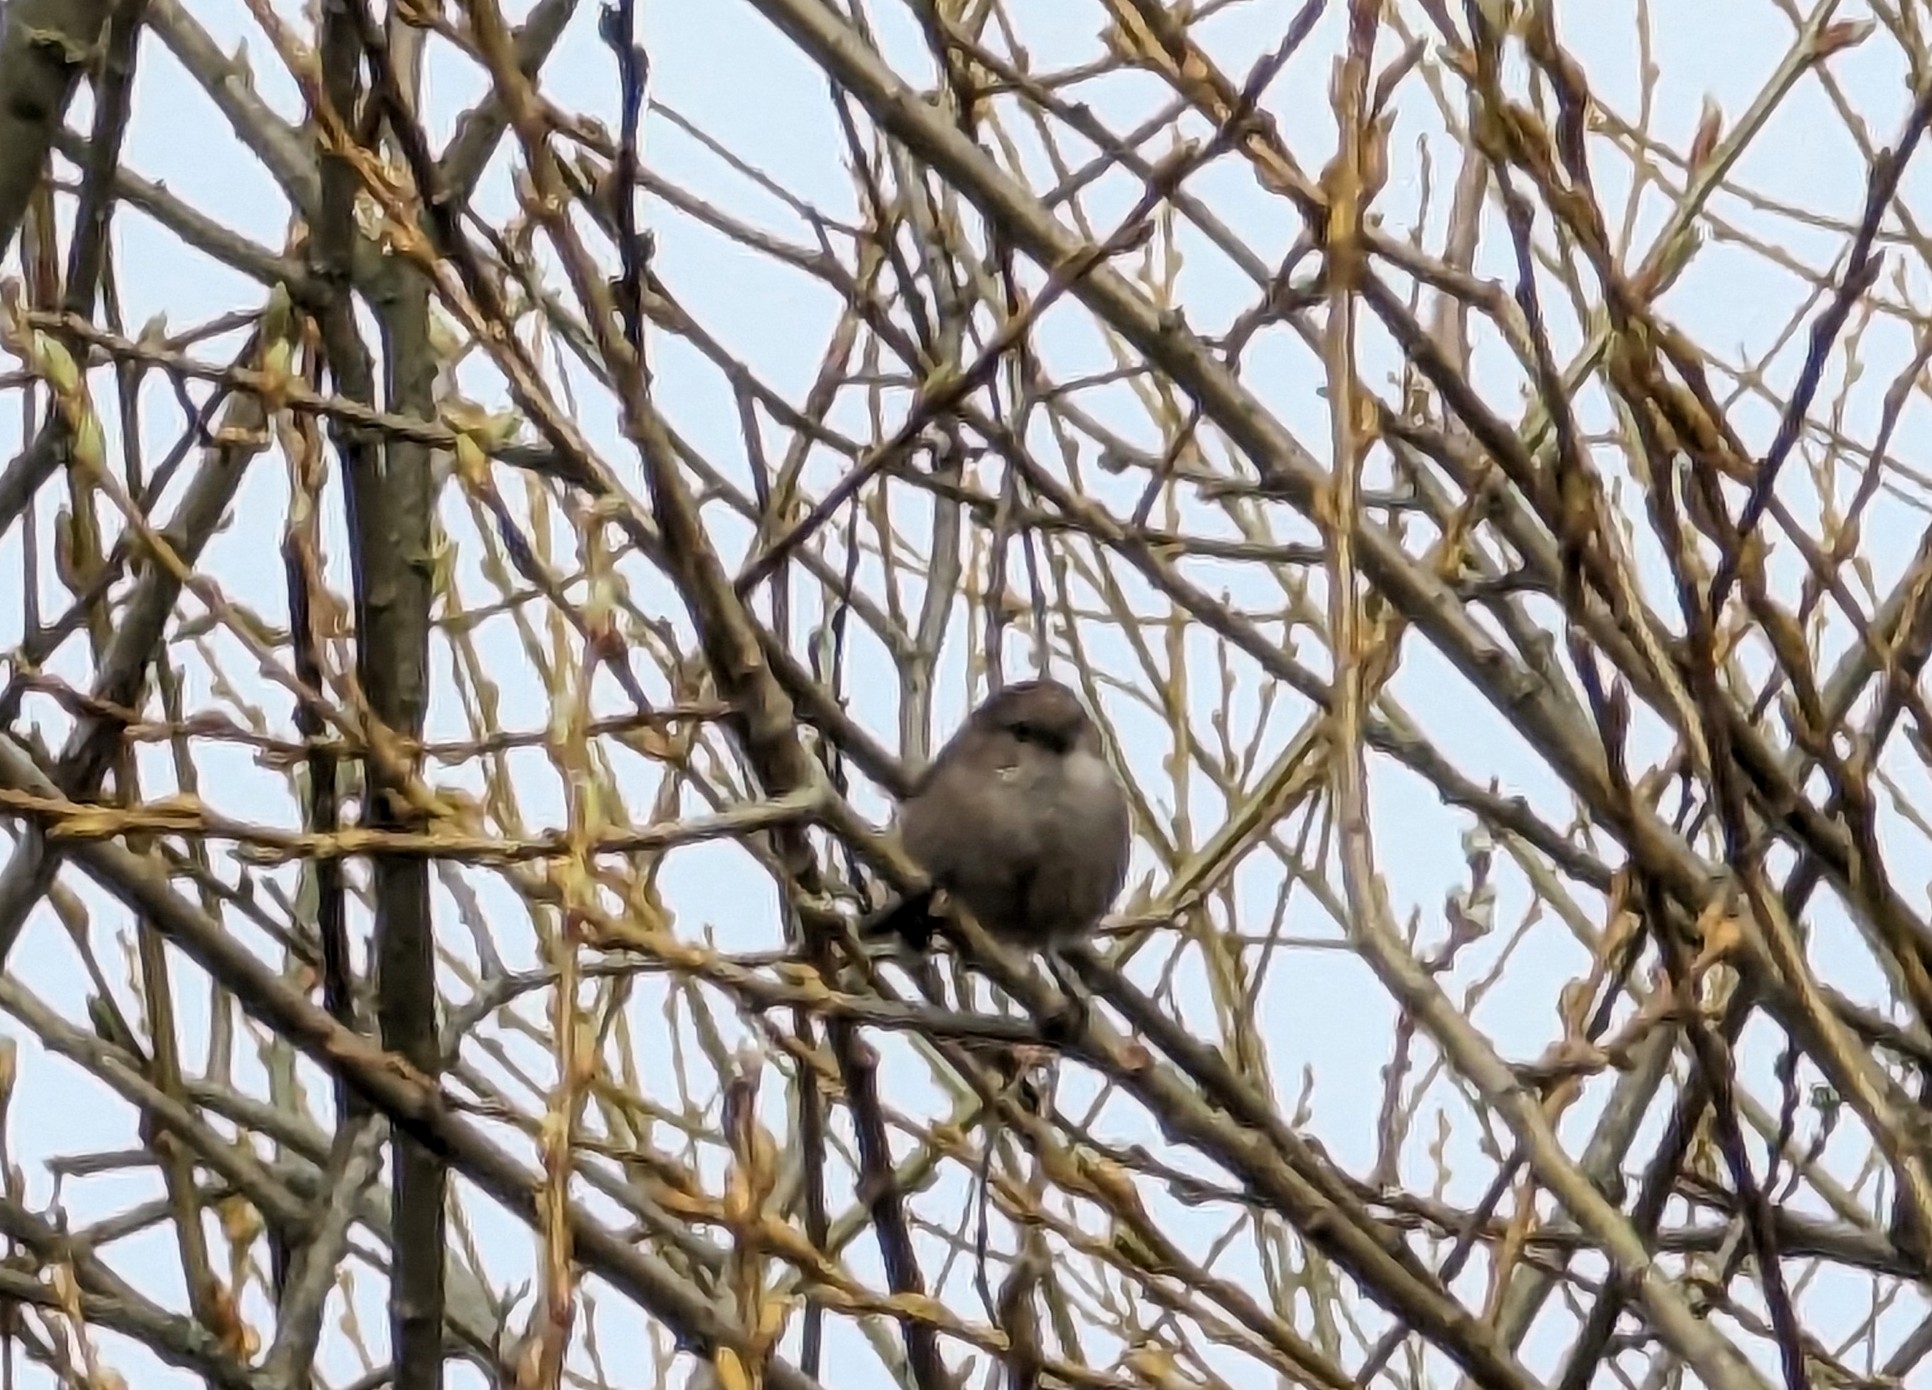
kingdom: Animalia
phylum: Chordata
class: Aves
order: Passeriformes
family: Aegithalidae
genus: Psaltriparus
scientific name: Psaltriparus minimus
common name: American bushtit
